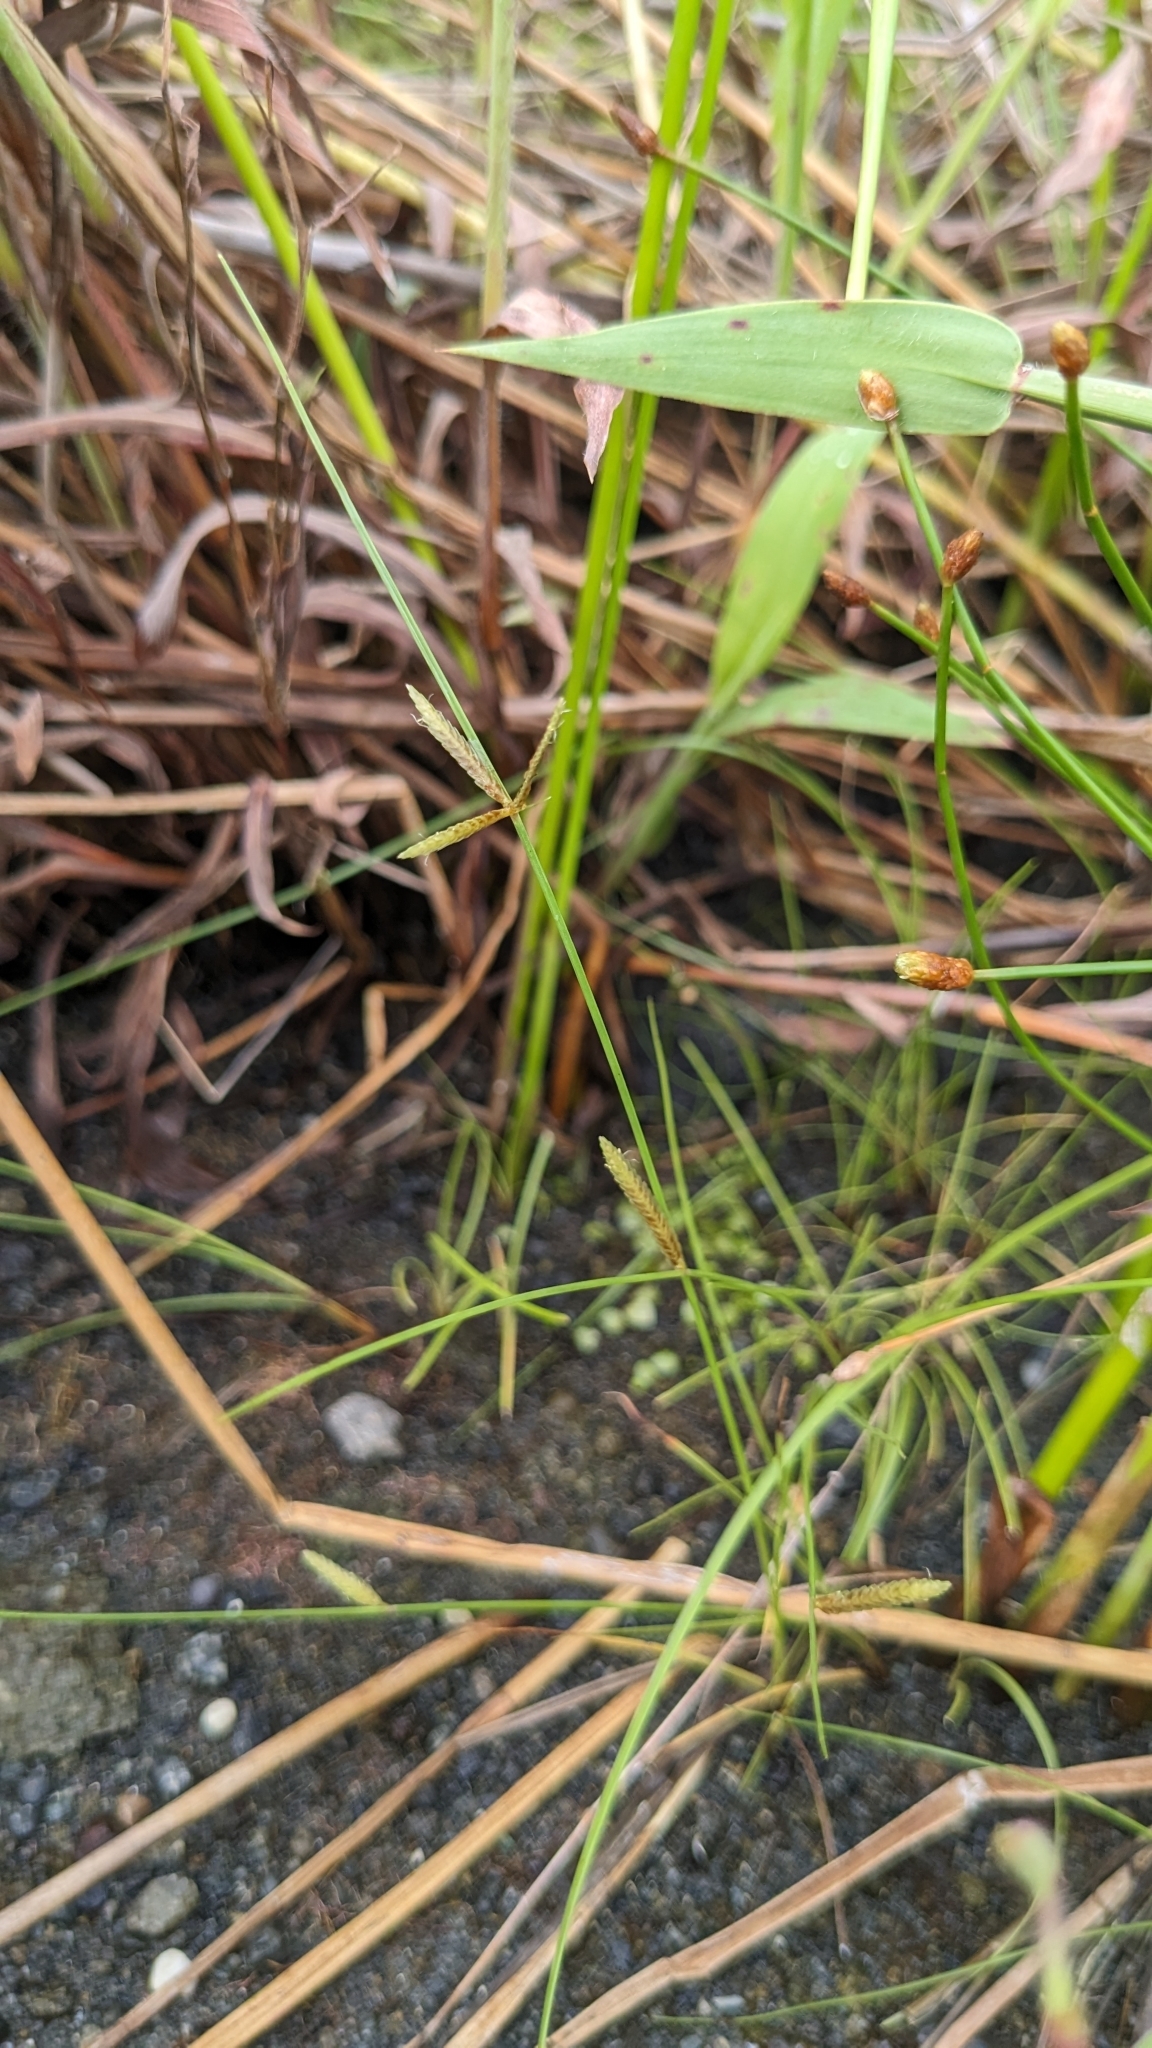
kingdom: Plantae
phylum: Tracheophyta
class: Liliopsida
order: Poales
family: Cyperaceae
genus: Cyperus
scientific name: Cyperus flavidus
